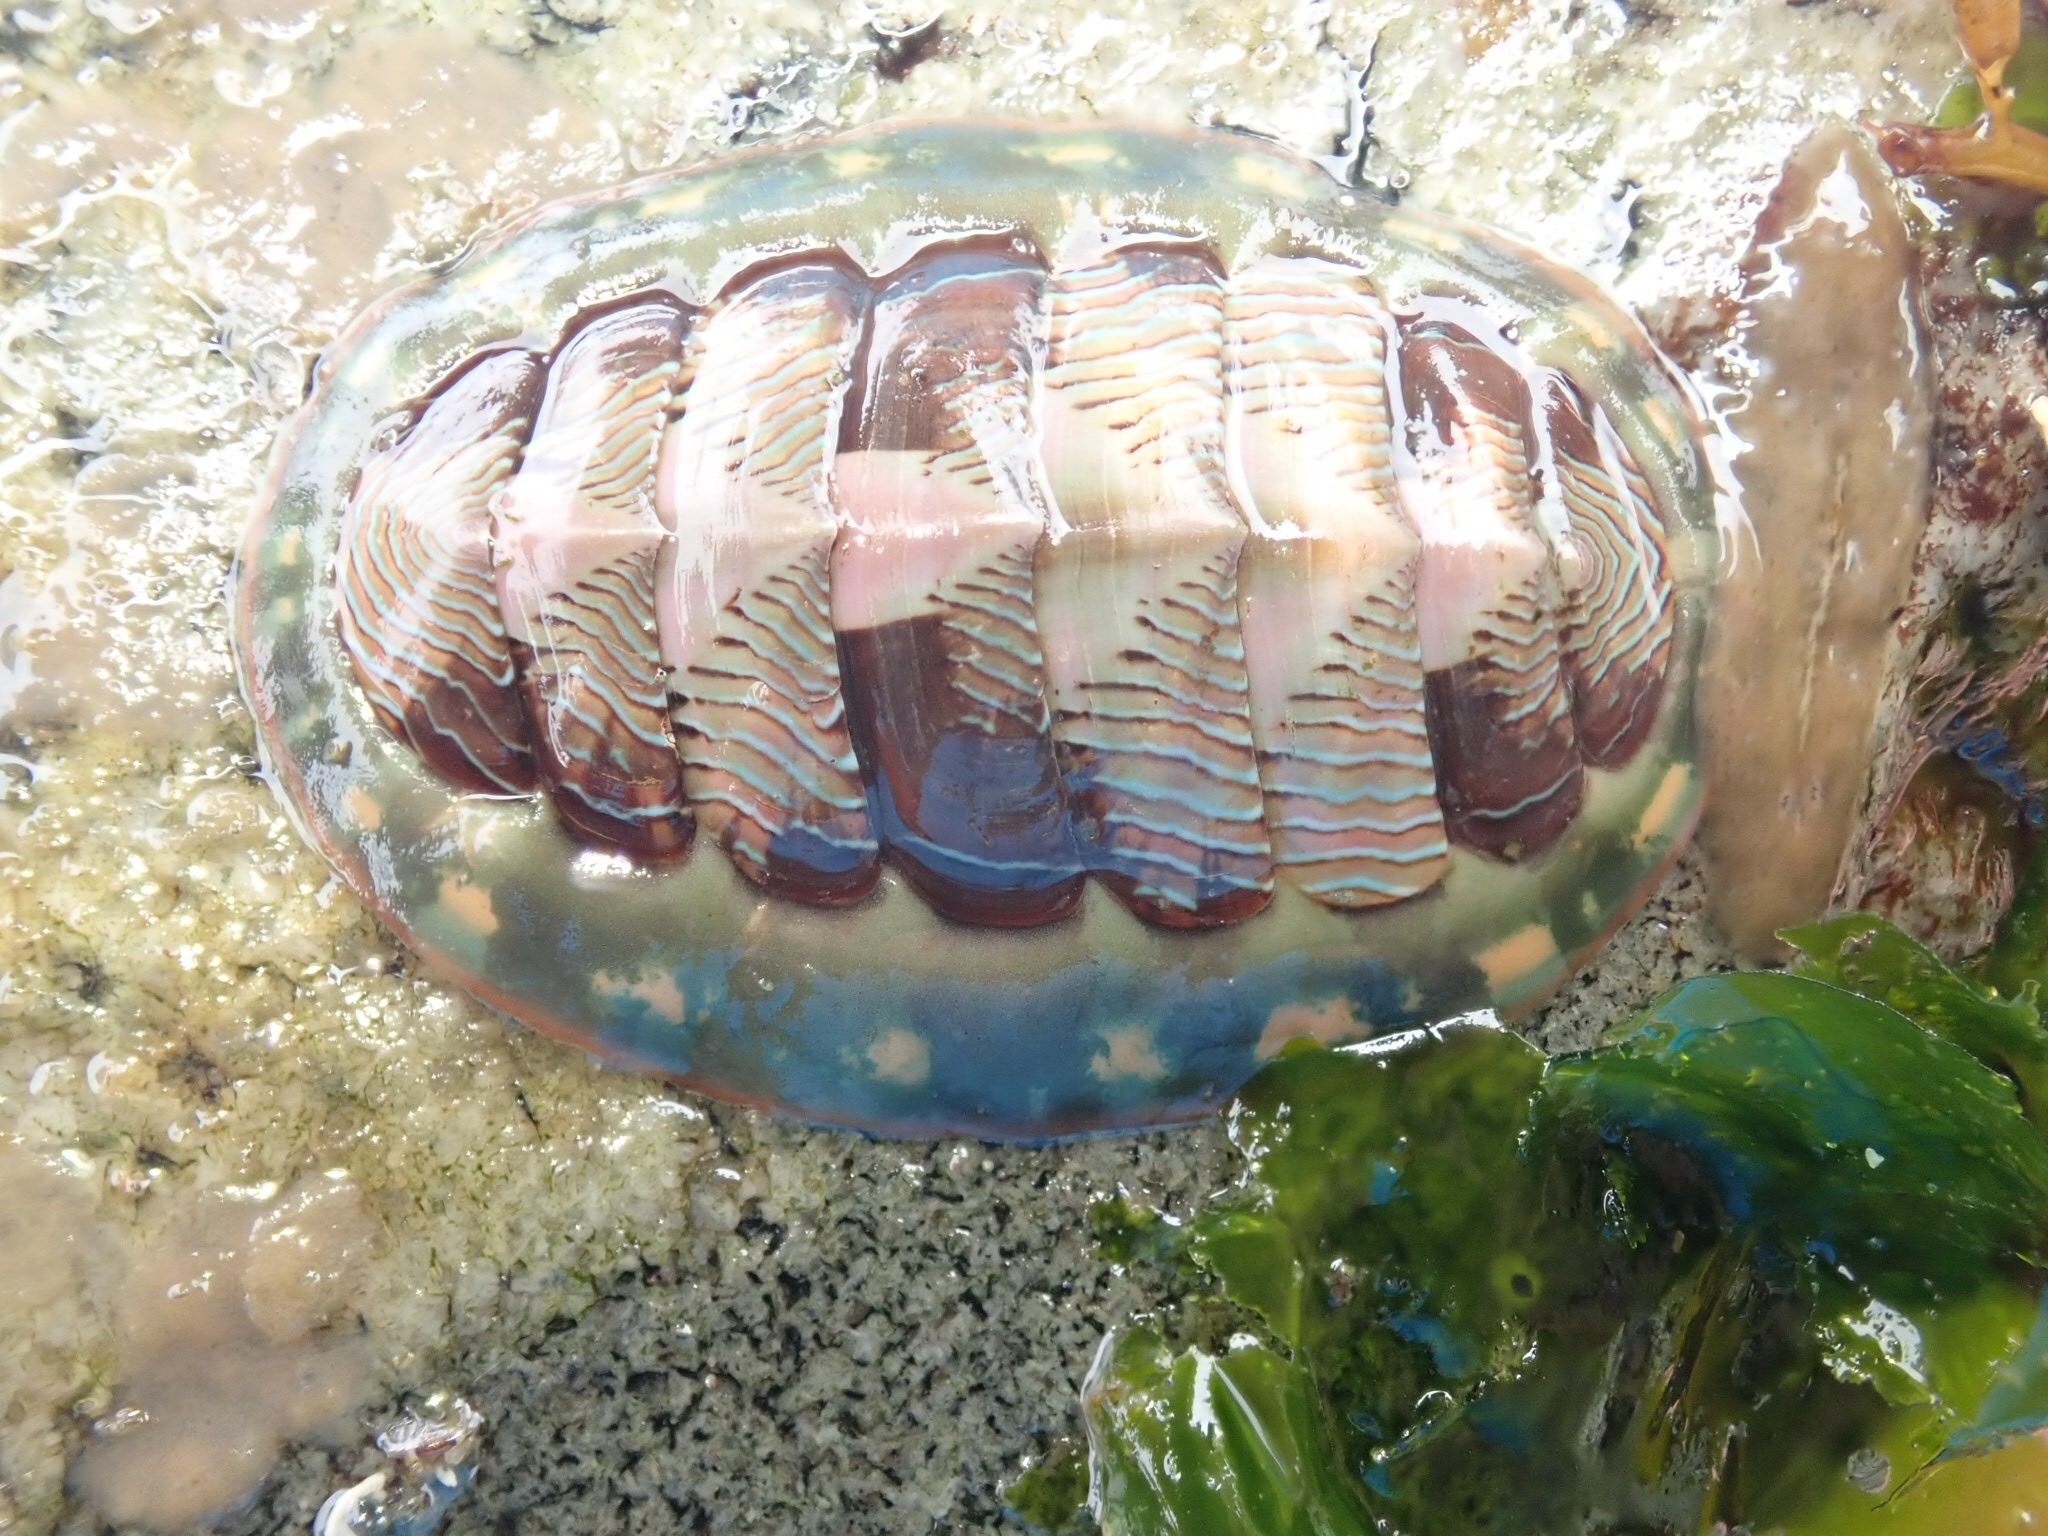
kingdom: Animalia
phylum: Mollusca
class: Polyplacophora
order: Chitonida
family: Tonicellidae
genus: Tonicella
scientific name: Tonicella lineata
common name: Lined chiton
